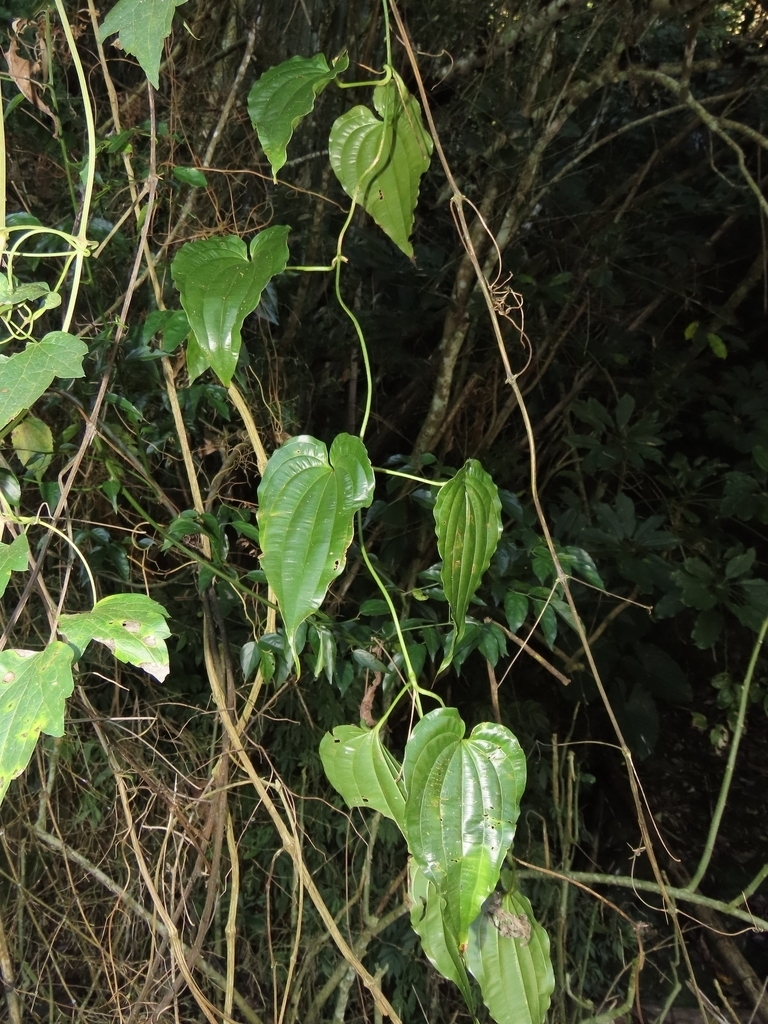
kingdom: Plantae
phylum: Tracheophyta
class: Liliopsida
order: Pandanales
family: Stemonaceae
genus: Stemona
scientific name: Stemona tuberosa
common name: Stemona
